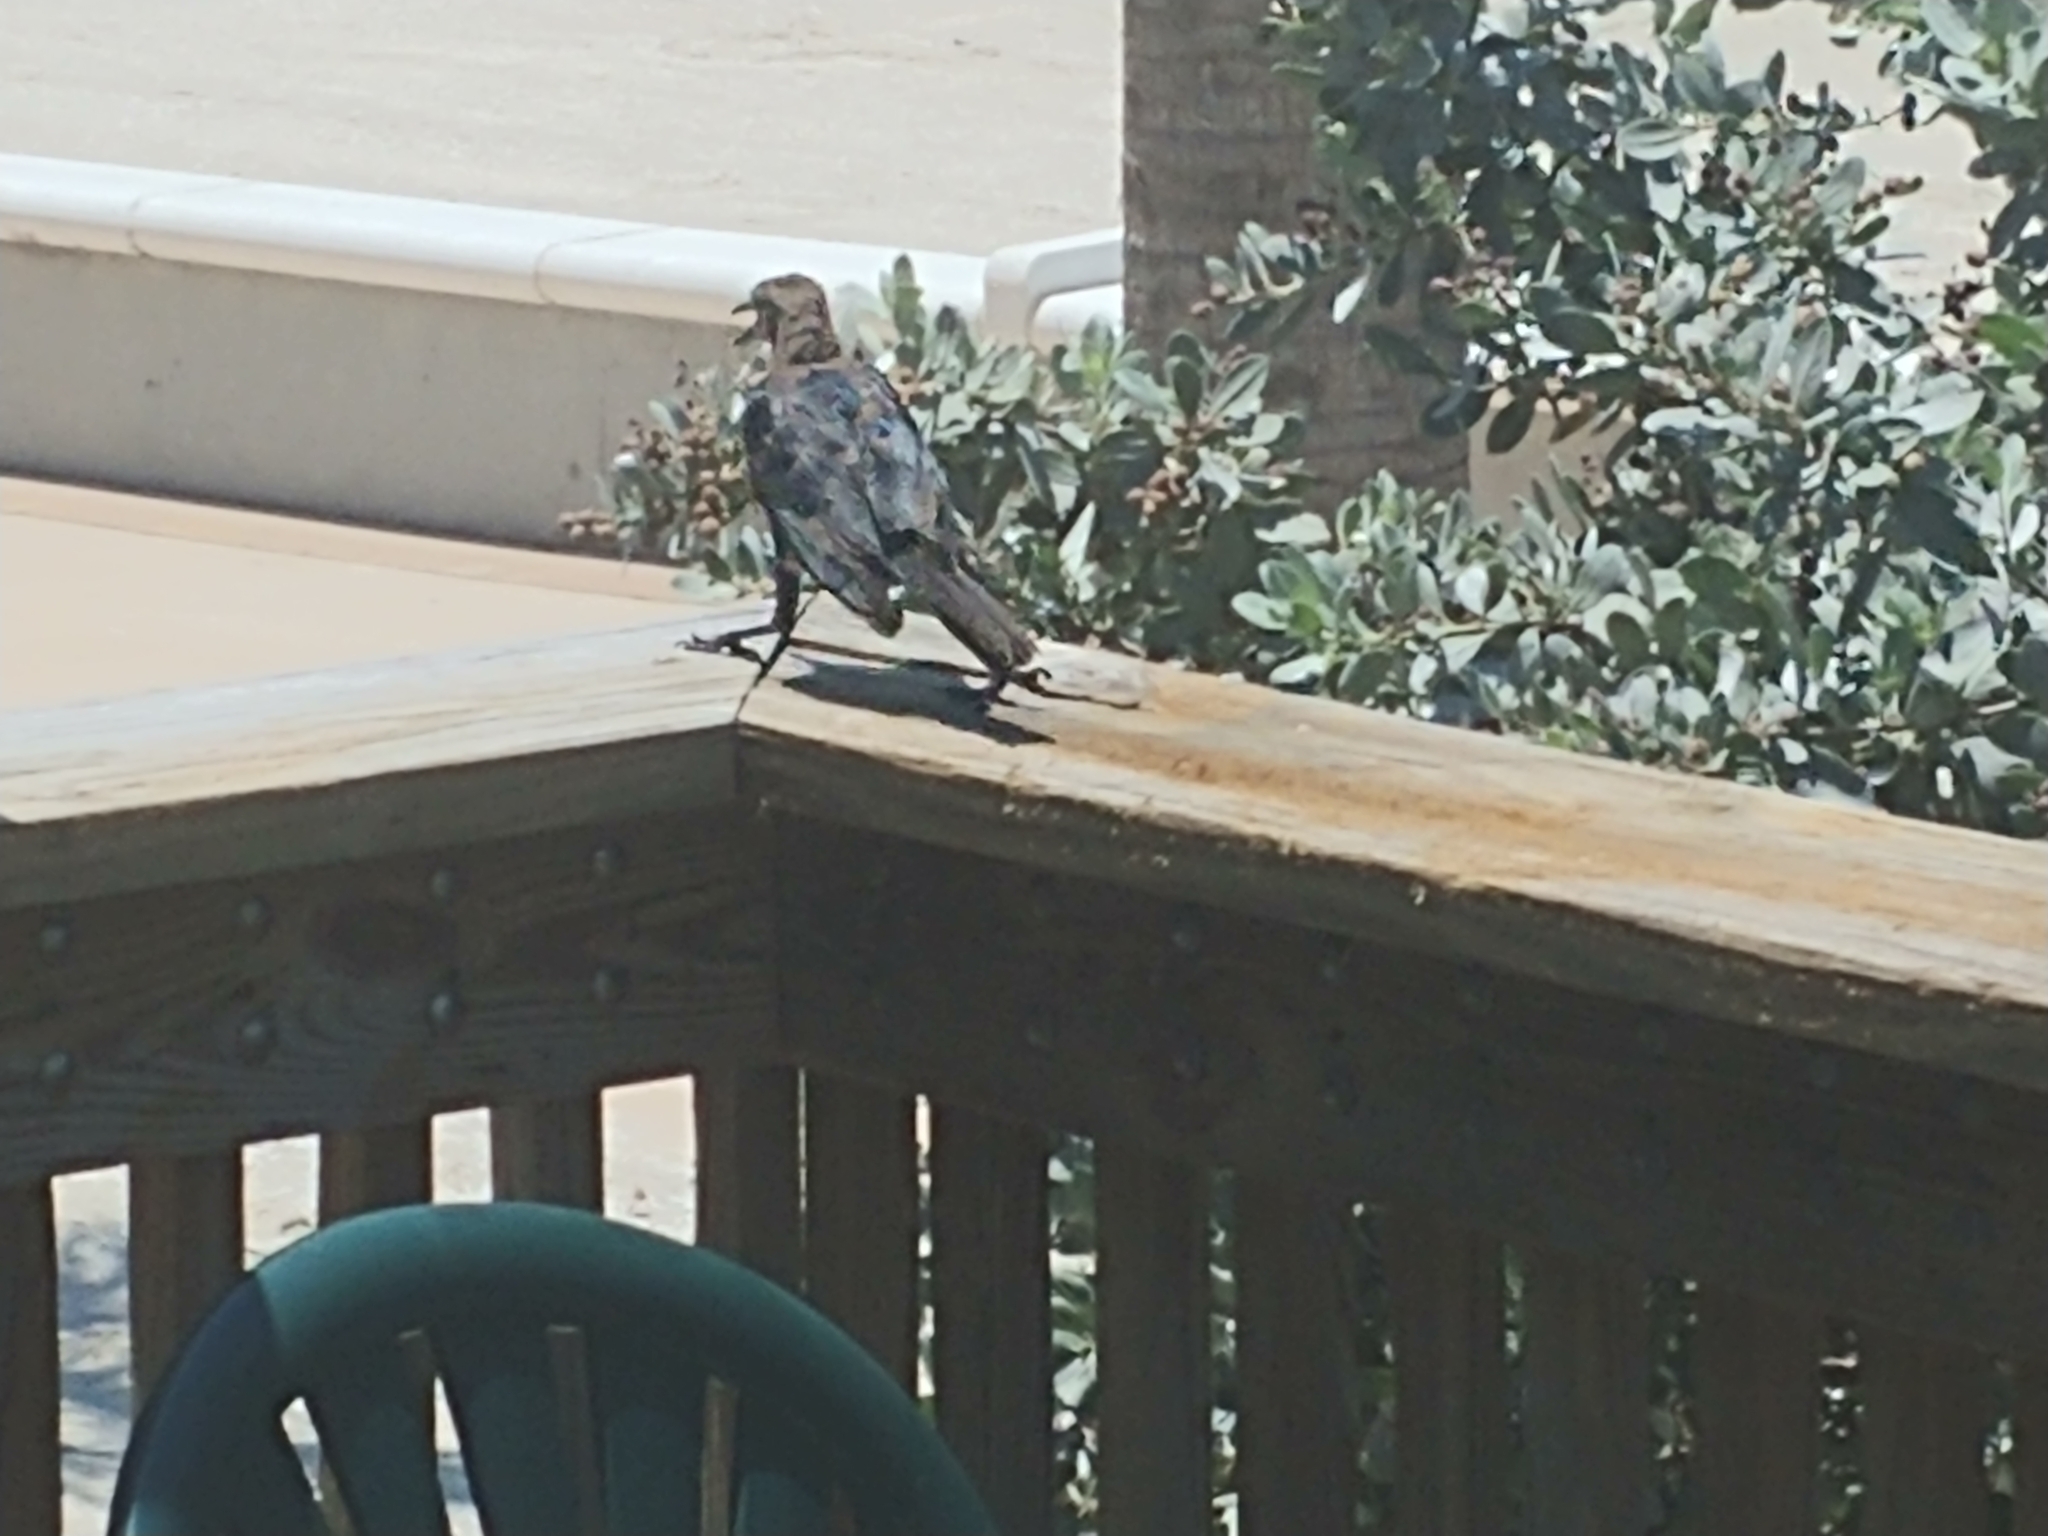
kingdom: Animalia
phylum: Chordata
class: Aves
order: Passeriformes
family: Icteridae
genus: Quiscalus
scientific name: Quiscalus major
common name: Boat-tailed grackle
